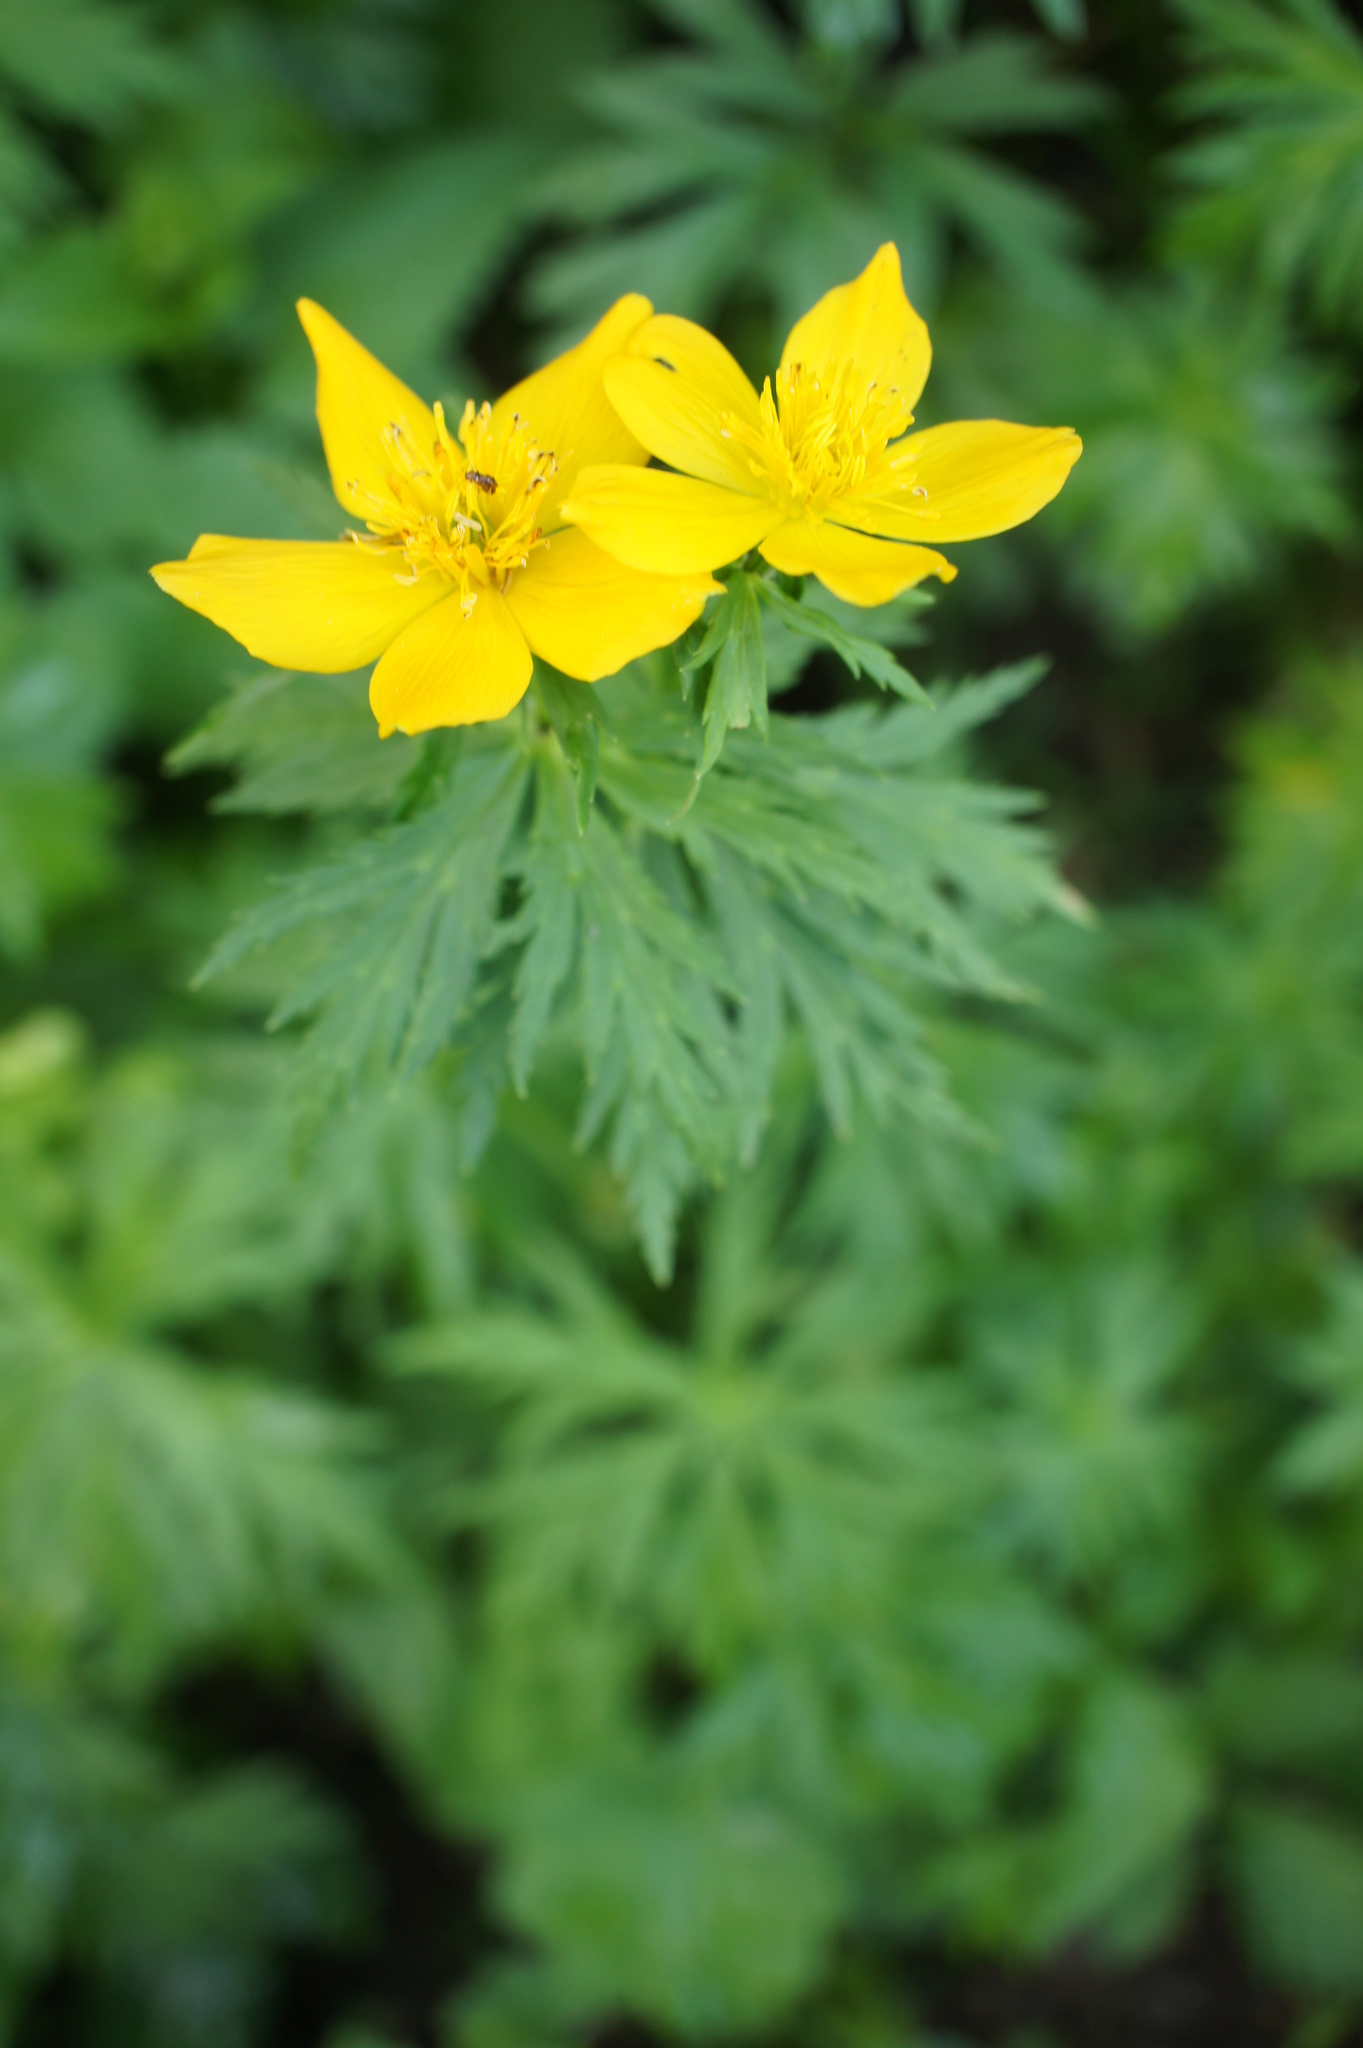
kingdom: Plantae
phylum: Tracheophyta
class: Magnoliopsida
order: Ranunculales
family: Ranunculaceae
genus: Trollius
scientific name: Trollius ranunculinus
